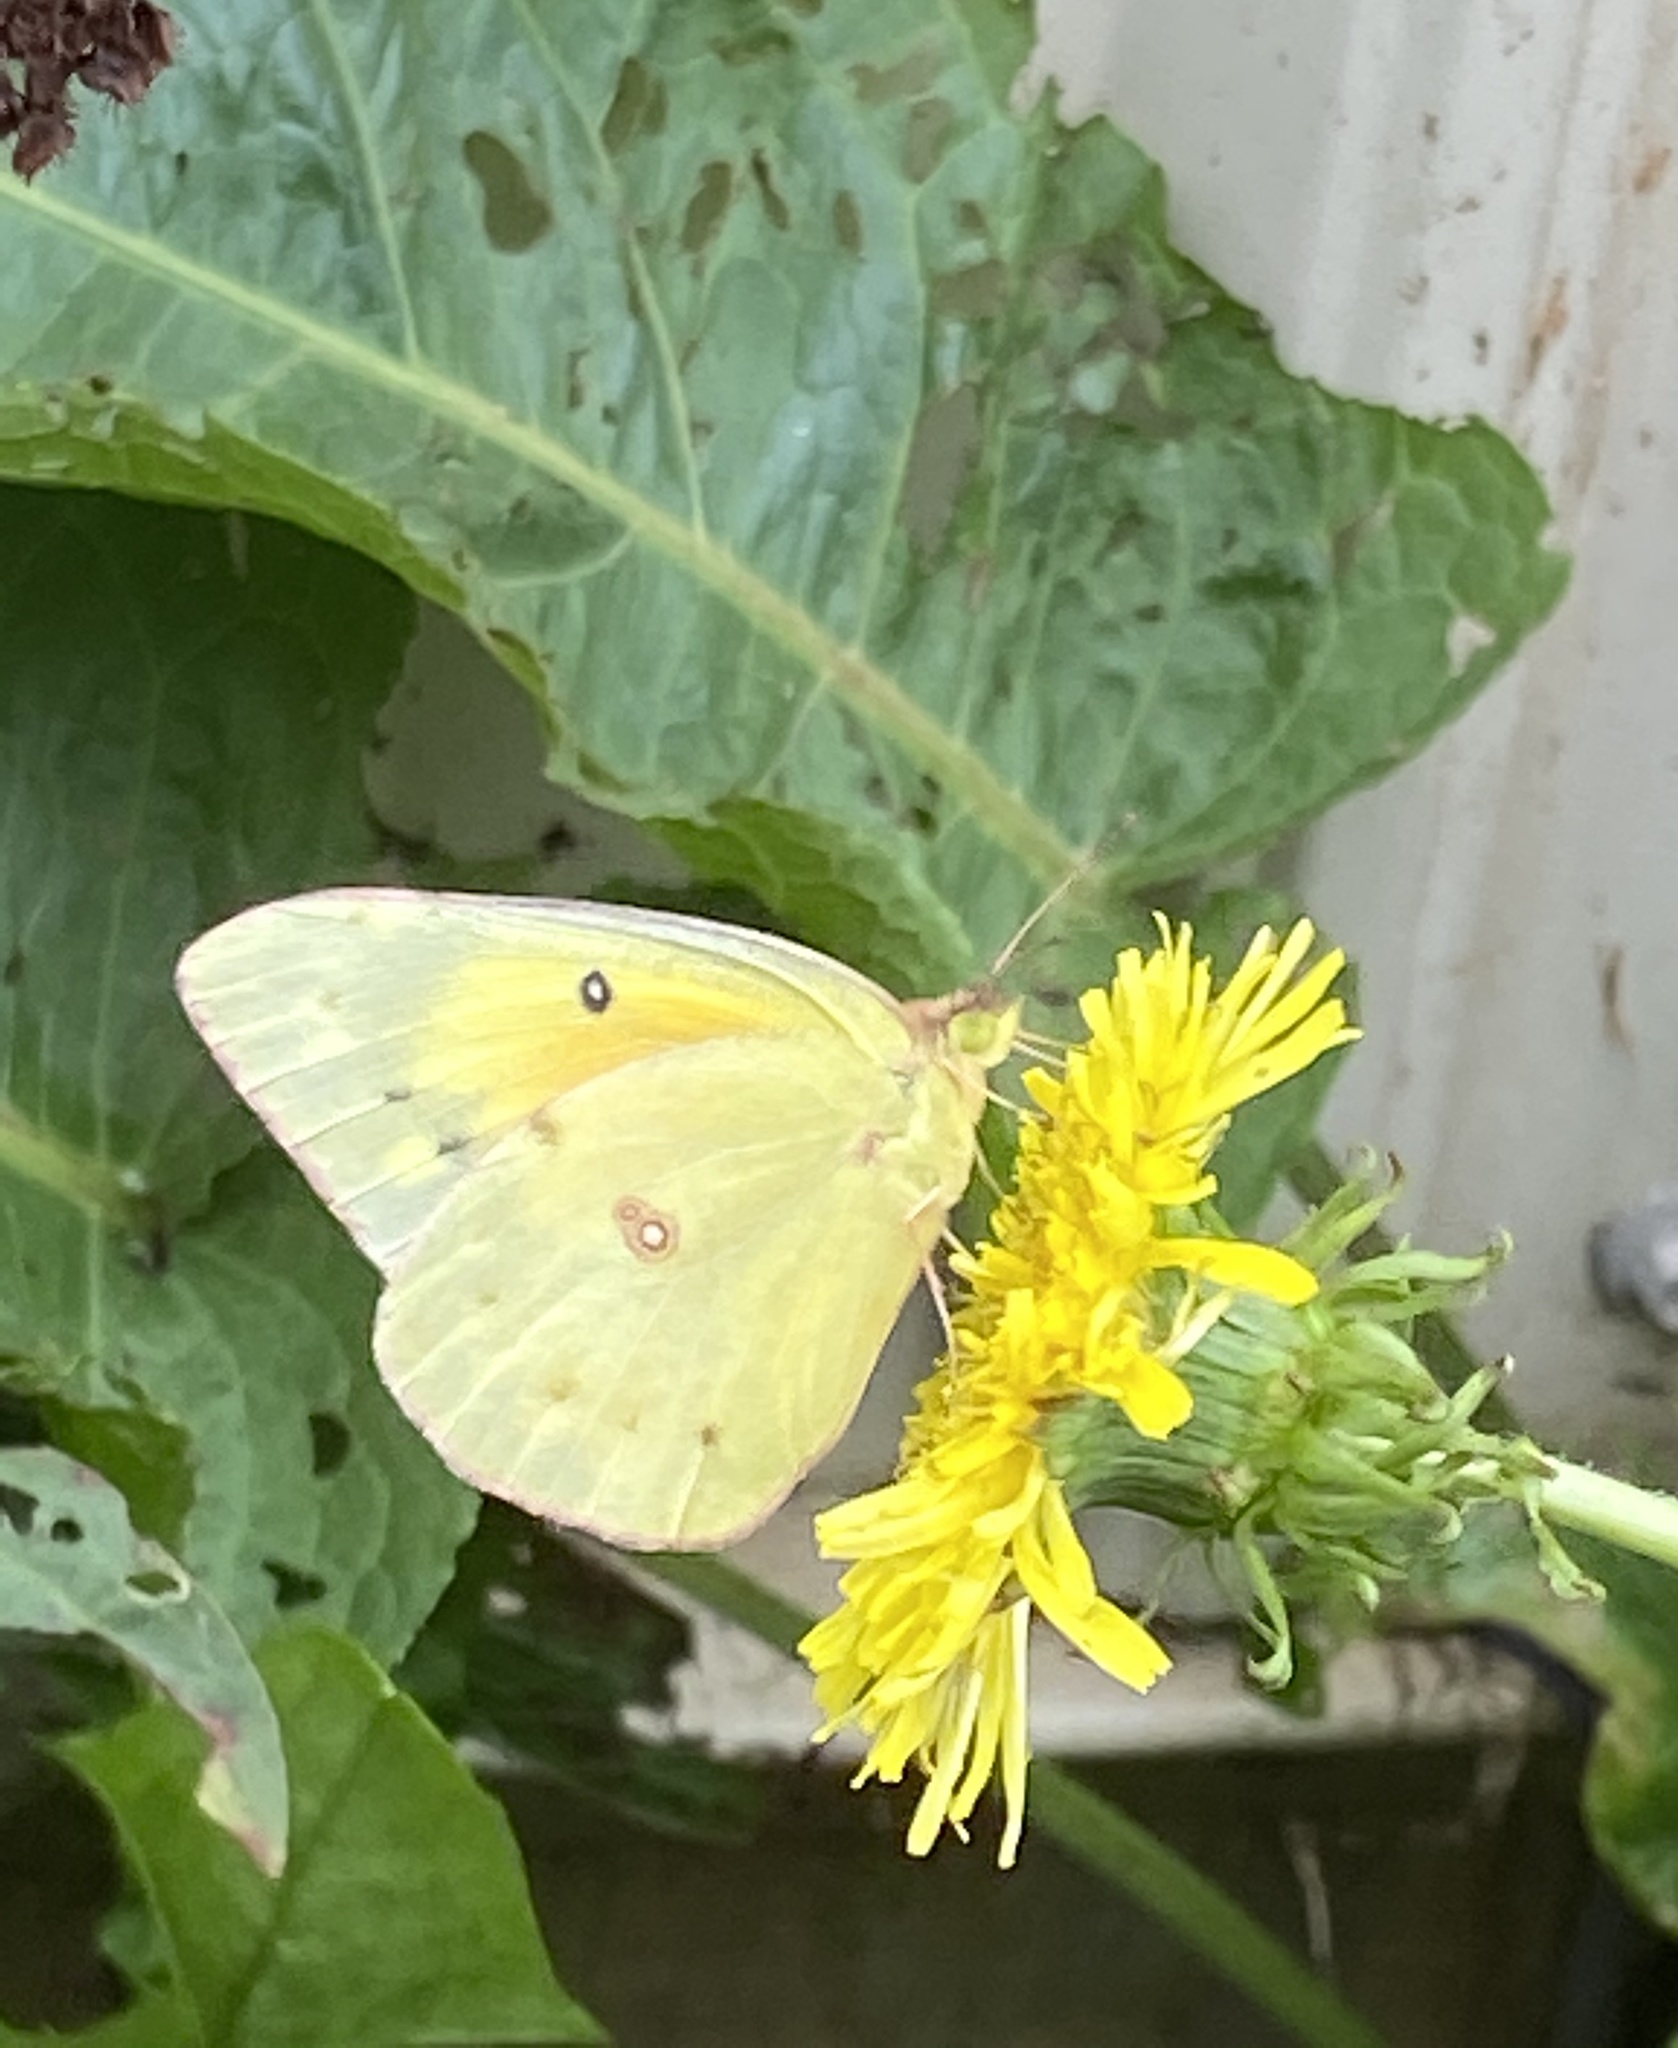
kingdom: Animalia
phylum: Arthropoda
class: Insecta
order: Lepidoptera
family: Pieridae
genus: Colias
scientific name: Colias eurytheme
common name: Alfalfa butterfly
